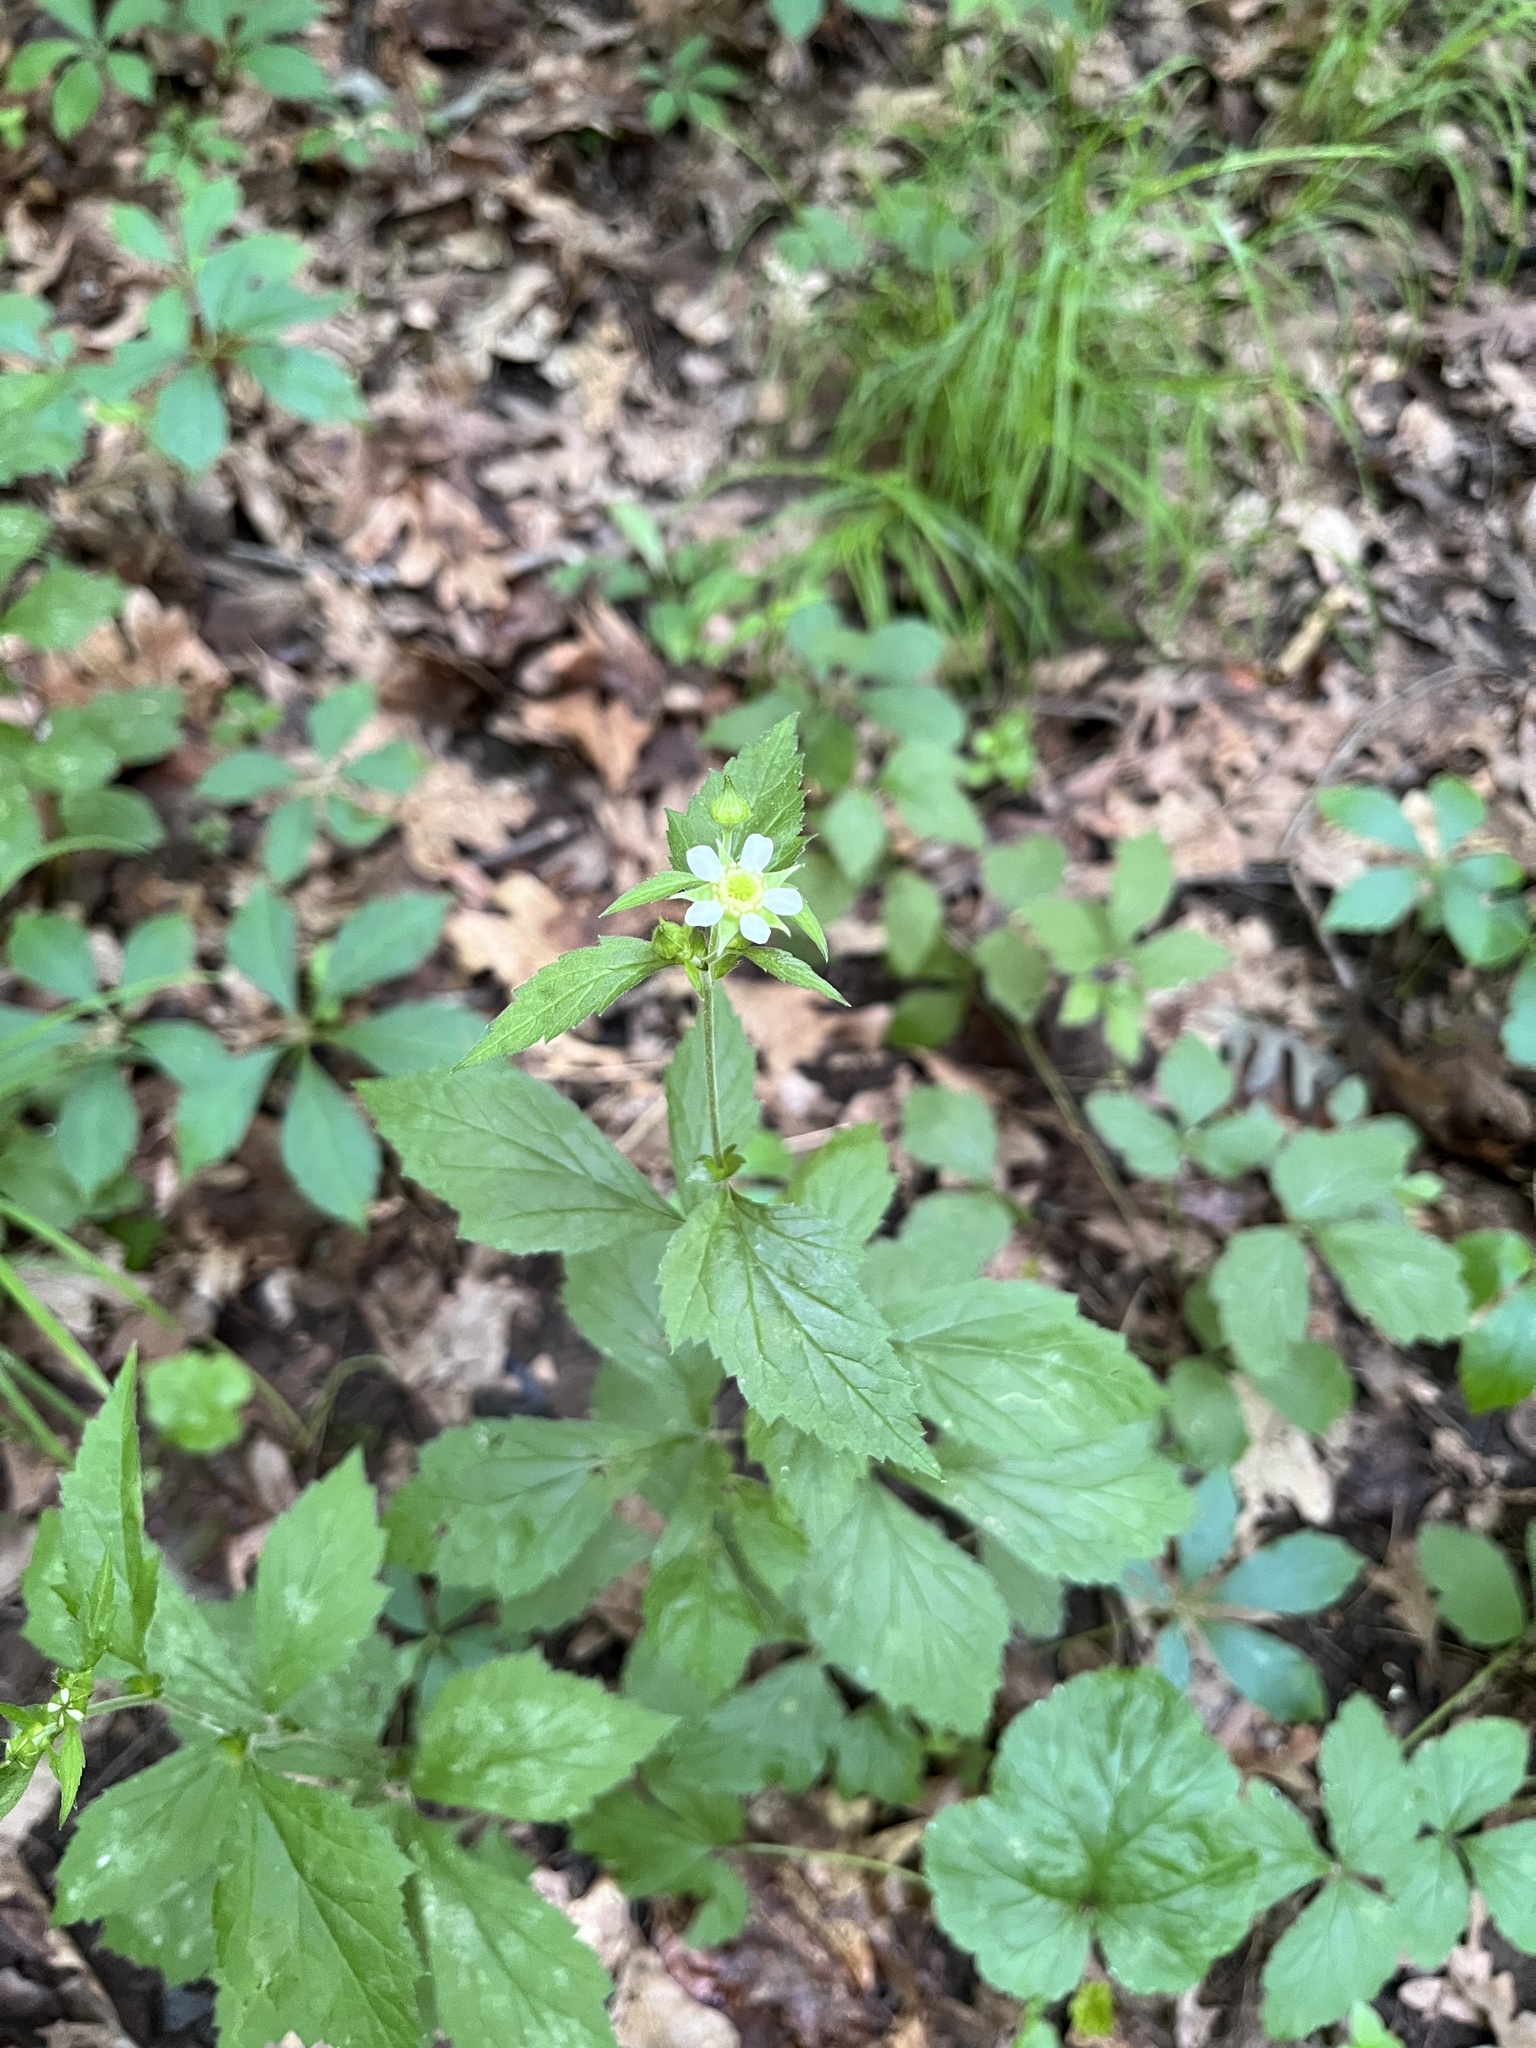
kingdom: Plantae
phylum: Tracheophyta
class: Magnoliopsida
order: Rosales
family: Rosaceae
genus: Geum
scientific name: Geum canadense
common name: White avens
